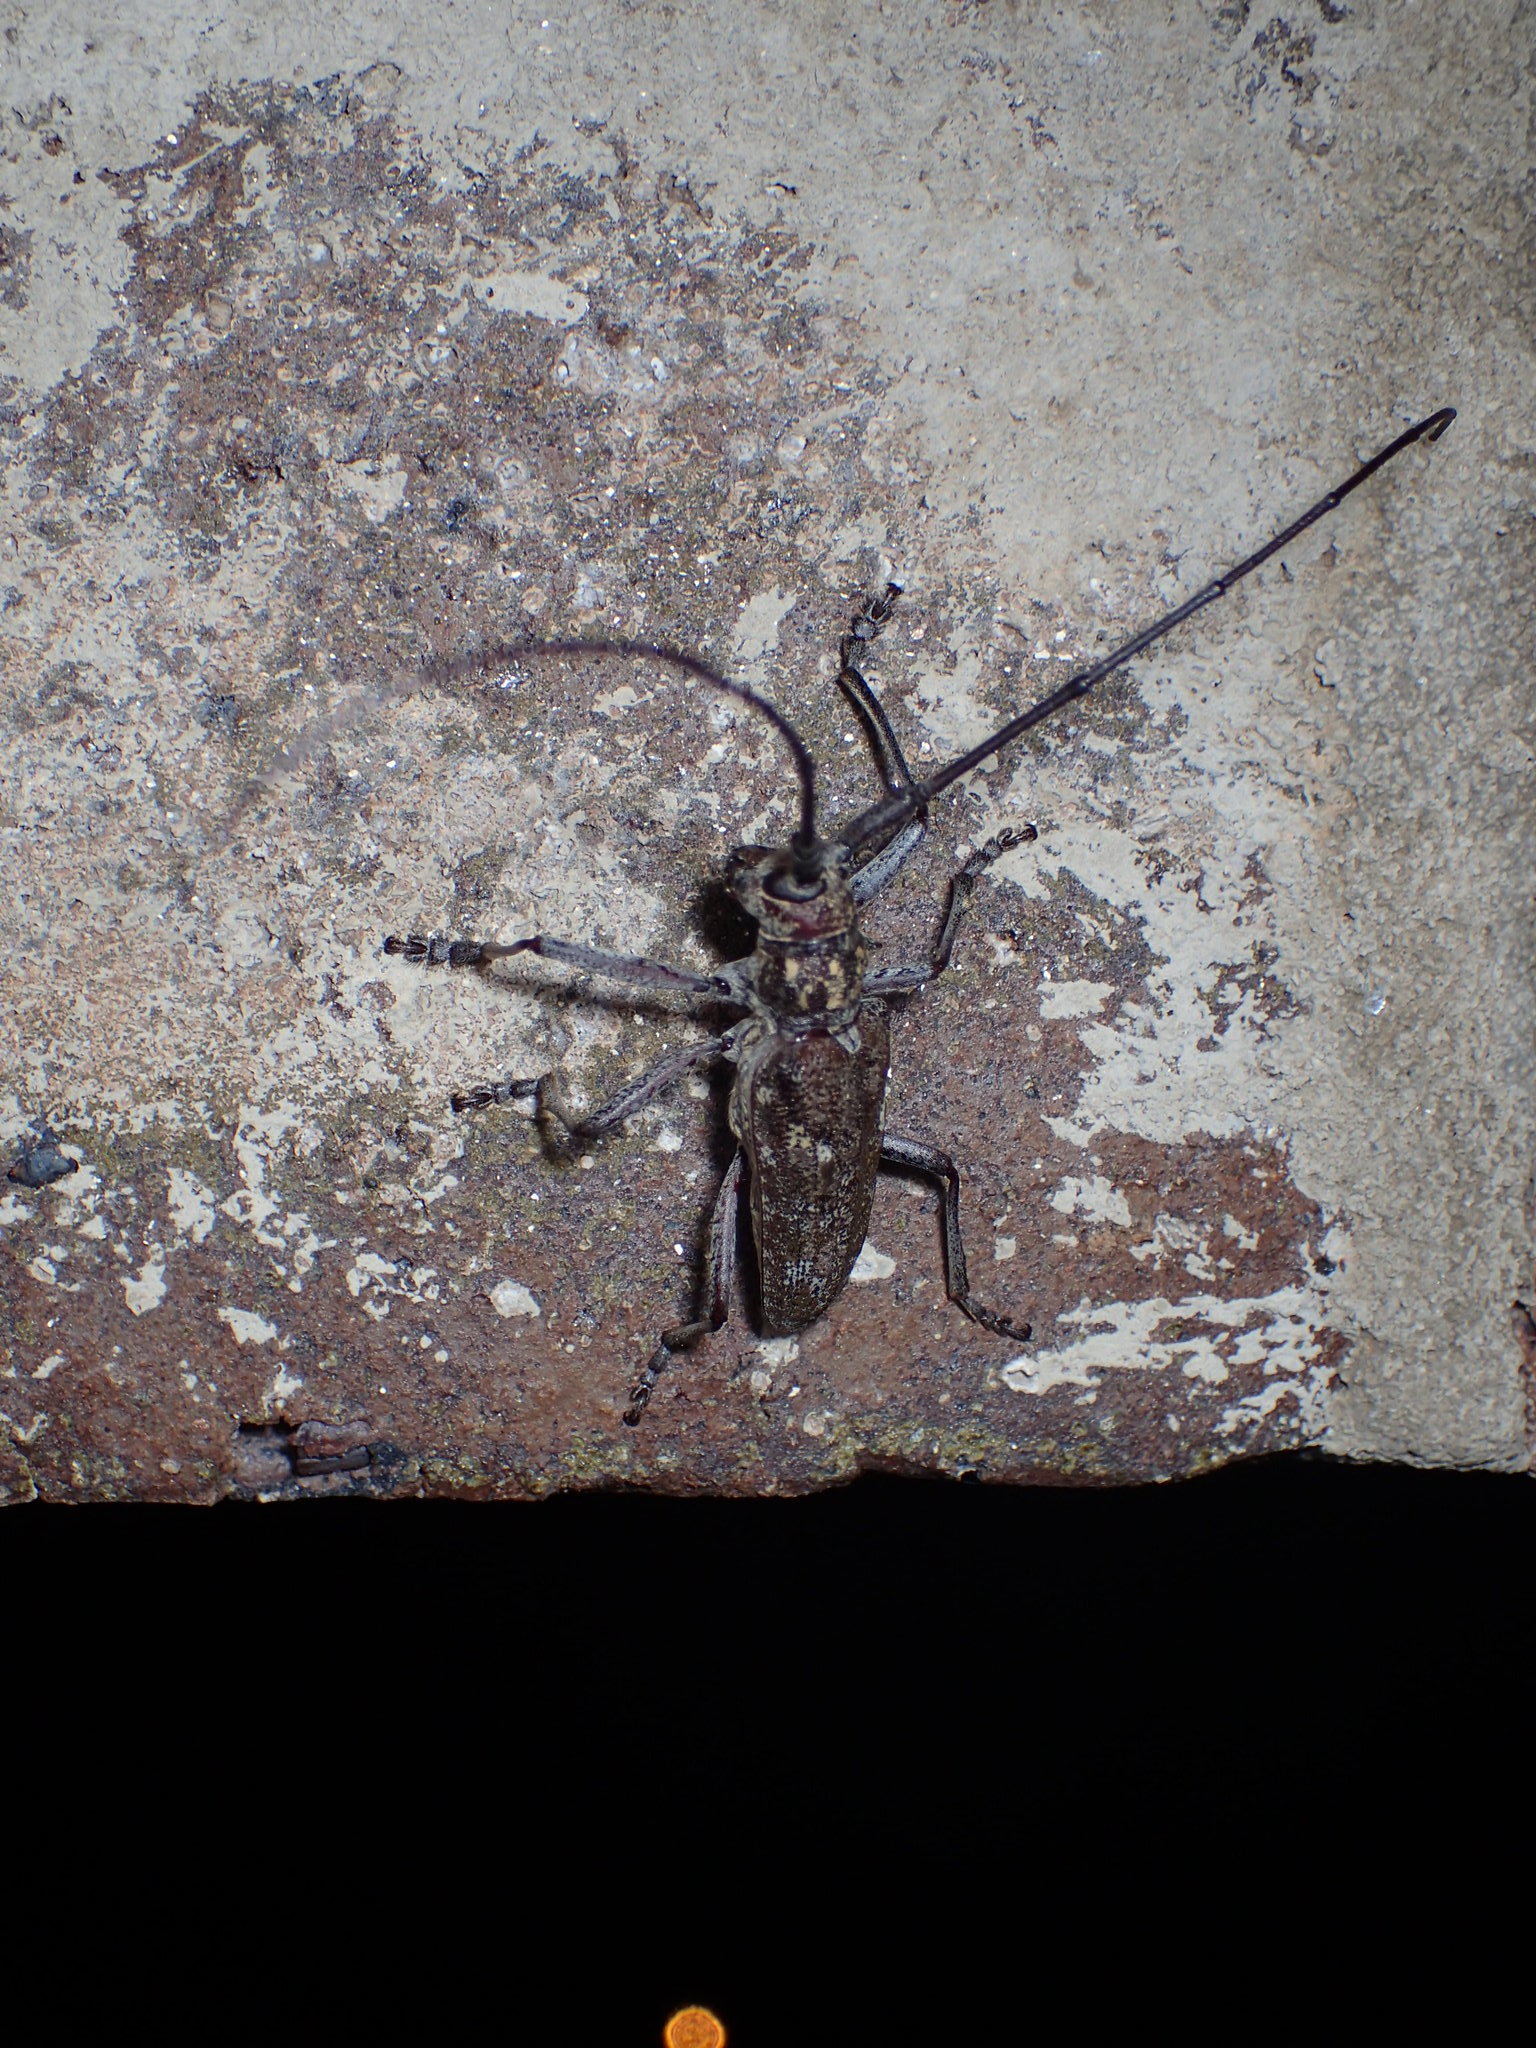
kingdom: Animalia
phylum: Arthropoda
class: Insecta
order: Coleoptera
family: Cerambycidae
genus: Monochamus
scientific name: Monochamus carolinensis
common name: Carolina pine sawyer
